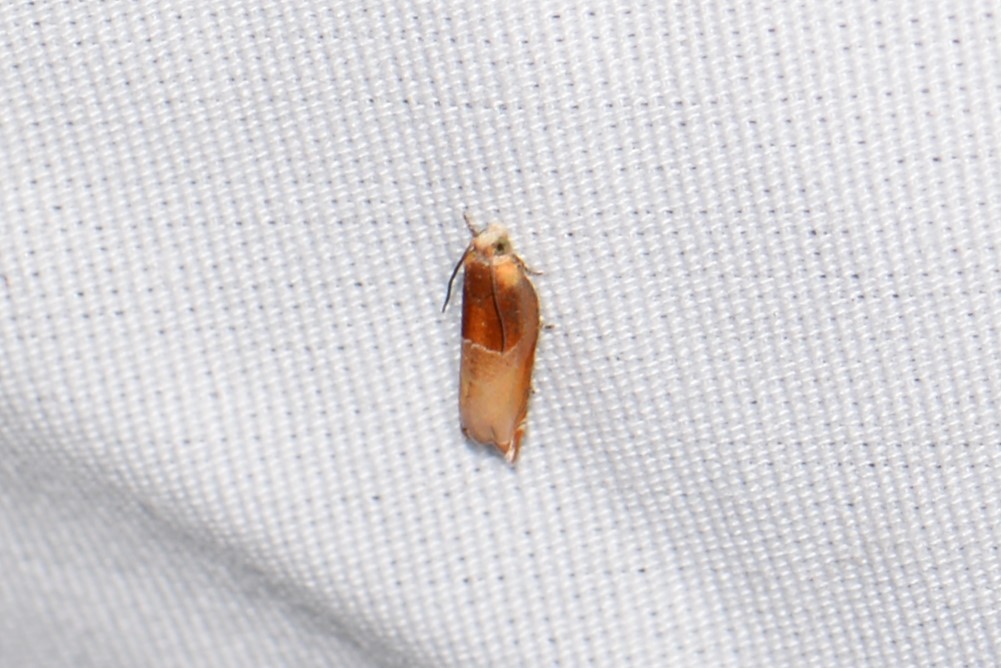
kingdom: Animalia
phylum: Arthropoda
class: Insecta
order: Lepidoptera
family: Tortricidae
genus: Ancylis
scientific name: Ancylis divisana
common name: Two-toned ancylis moth
